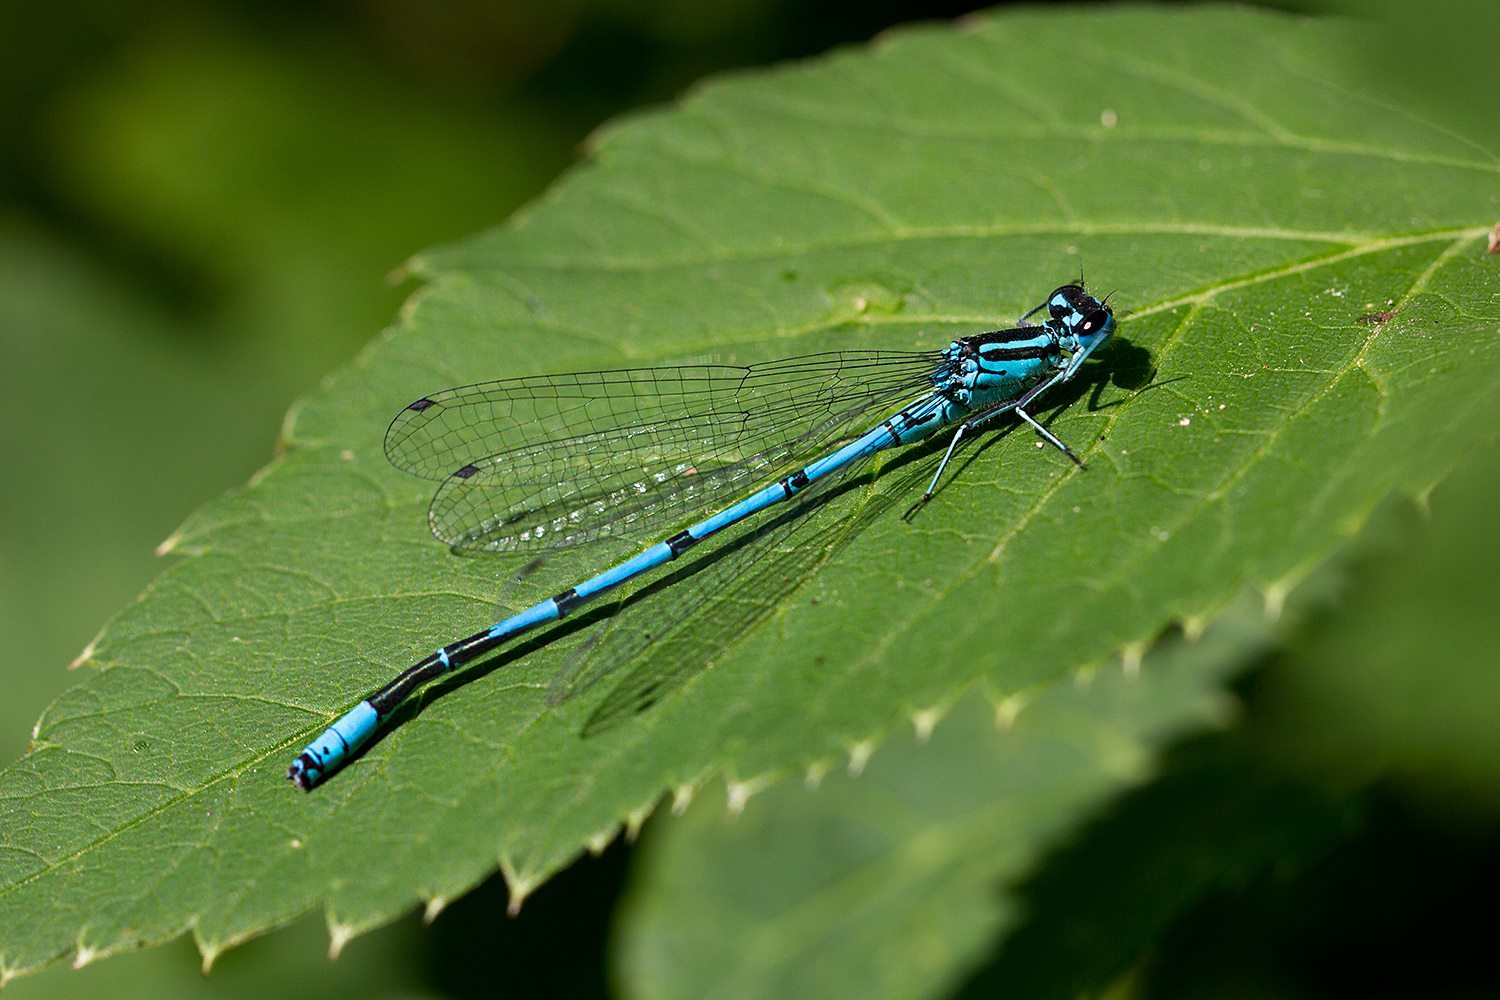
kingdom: Animalia
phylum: Arthropoda
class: Insecta
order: Odonata
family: Coenagrionidae
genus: Coenagrion
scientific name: Coenagrion puella
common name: Azure damselfly
